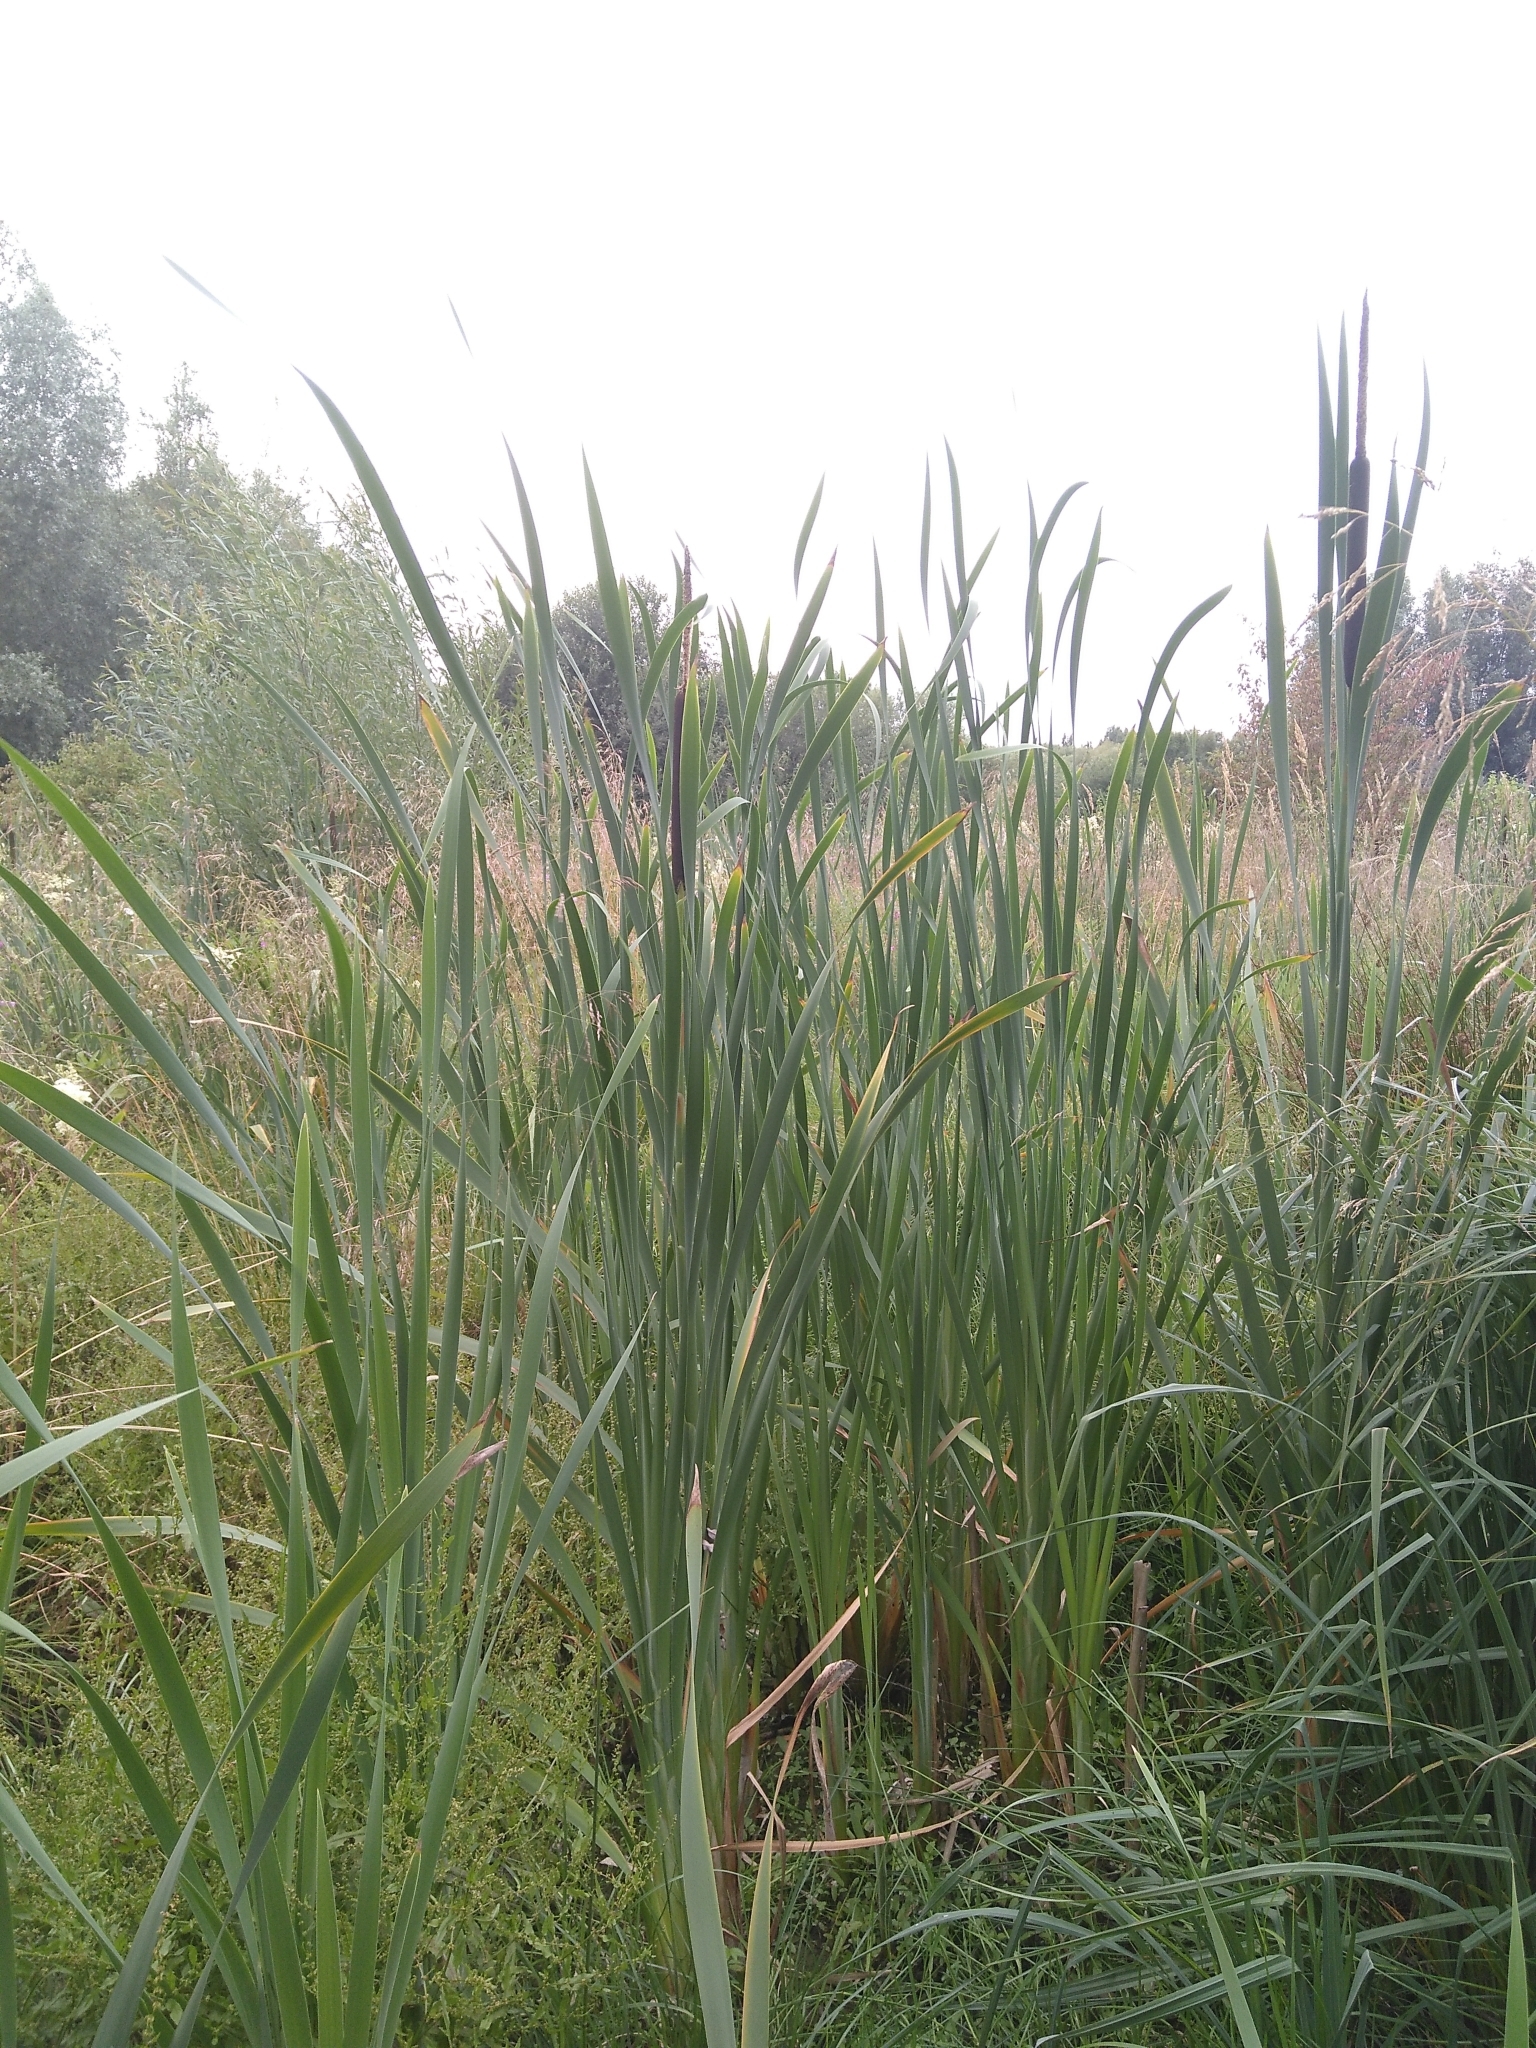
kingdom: Plantae
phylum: Tracheophyta
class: Liliopsida
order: Poales
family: Typhaceae
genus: Typha
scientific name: Typha latifolia
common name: Broadleaf cattail
